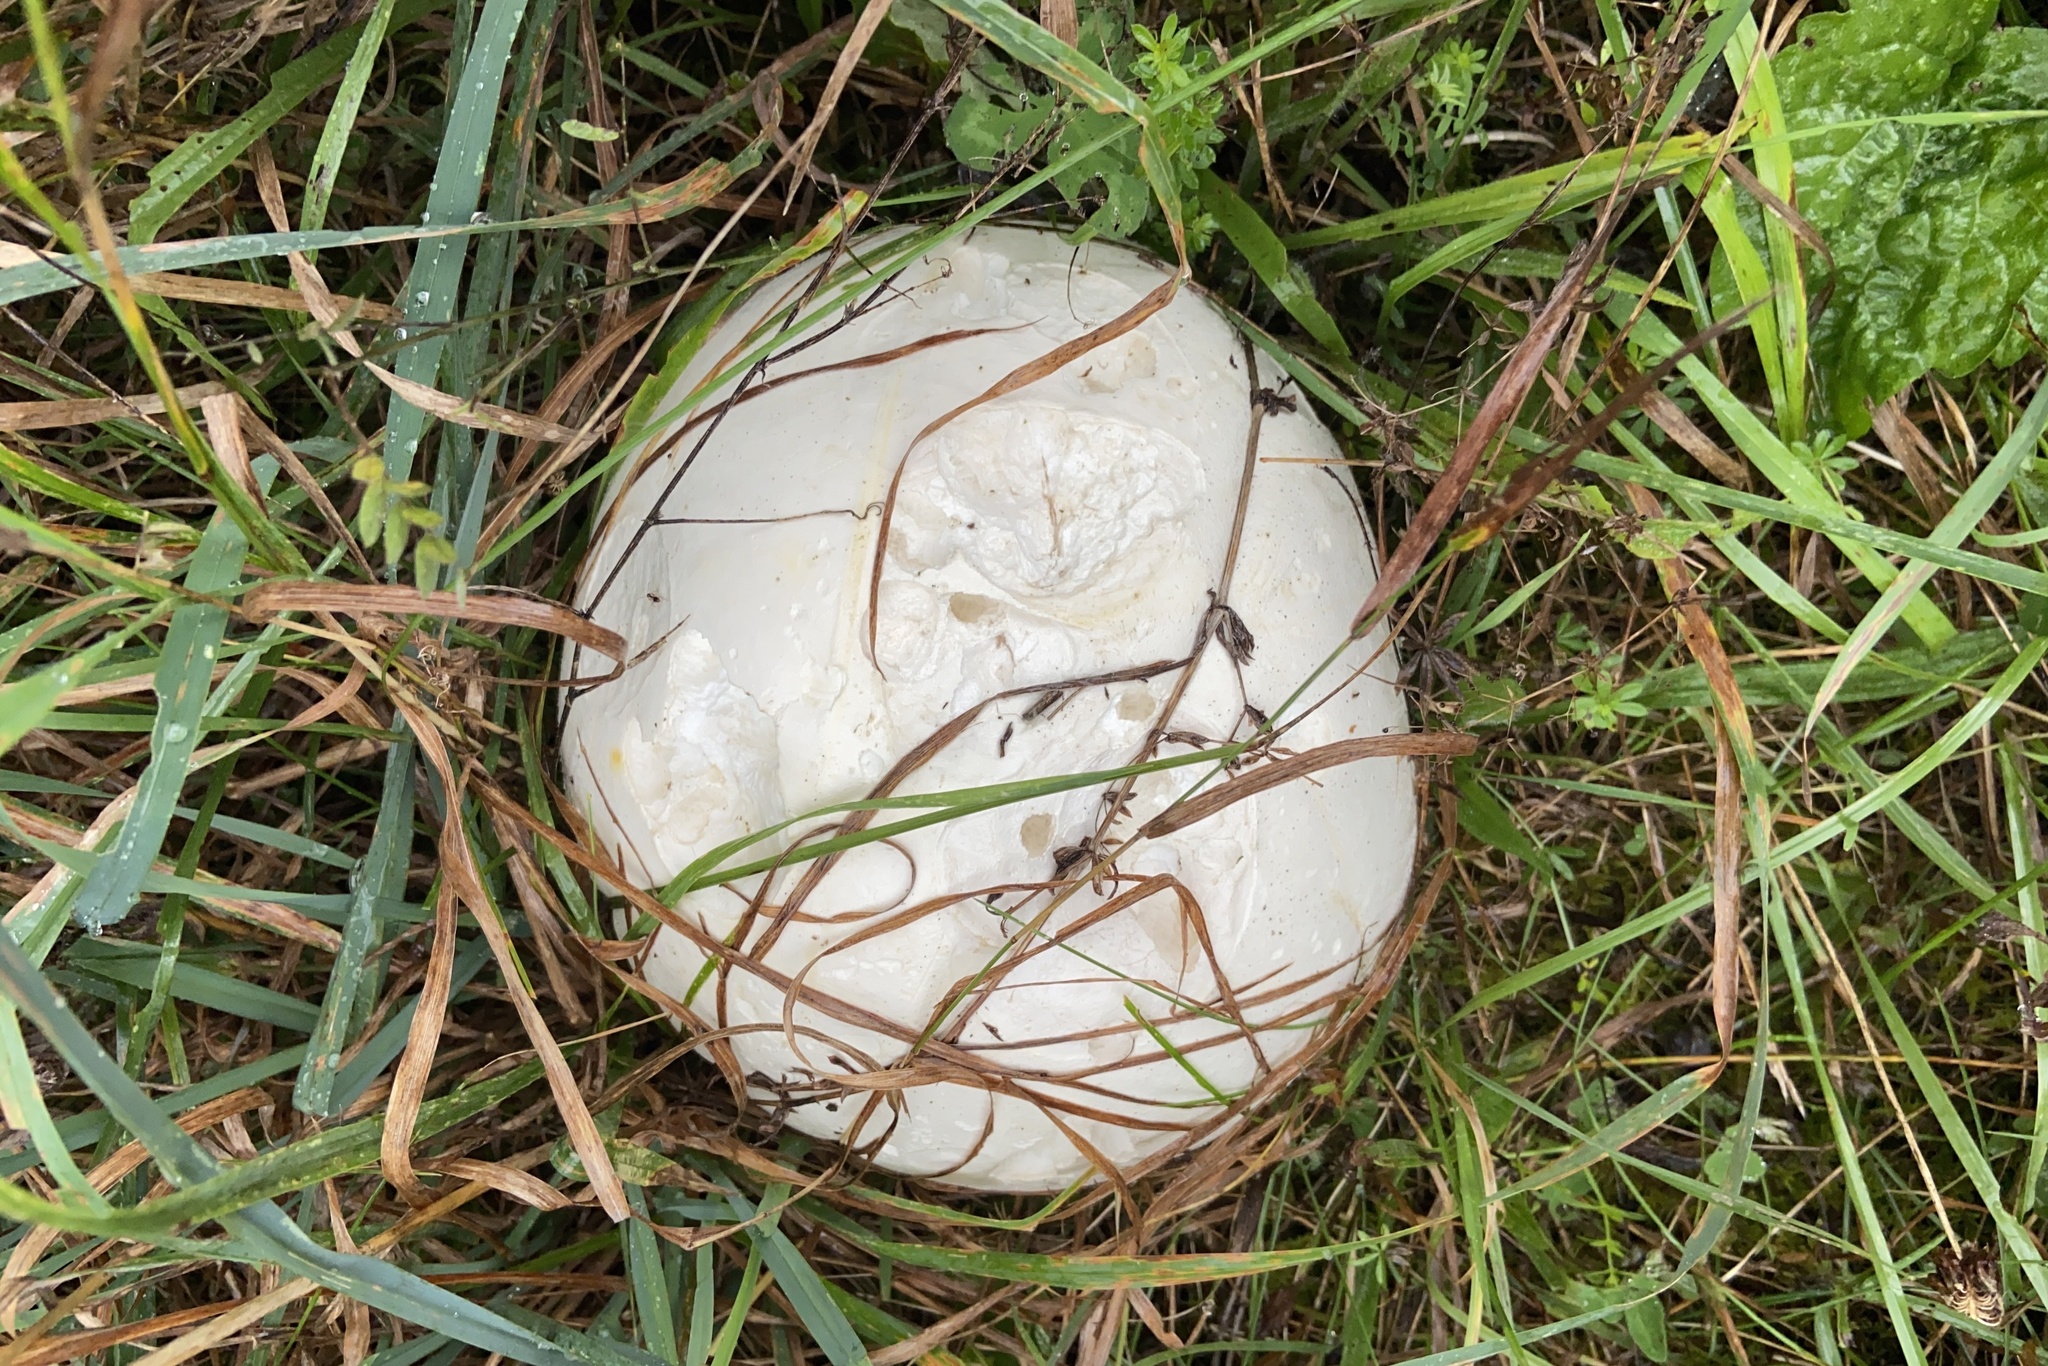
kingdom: Fungi
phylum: Basidiomycota
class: Agaricomycetes
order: Agaricales
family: Lycoperdaceae
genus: Calvatia
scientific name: Calvatia gigantea
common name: Giant puffball
